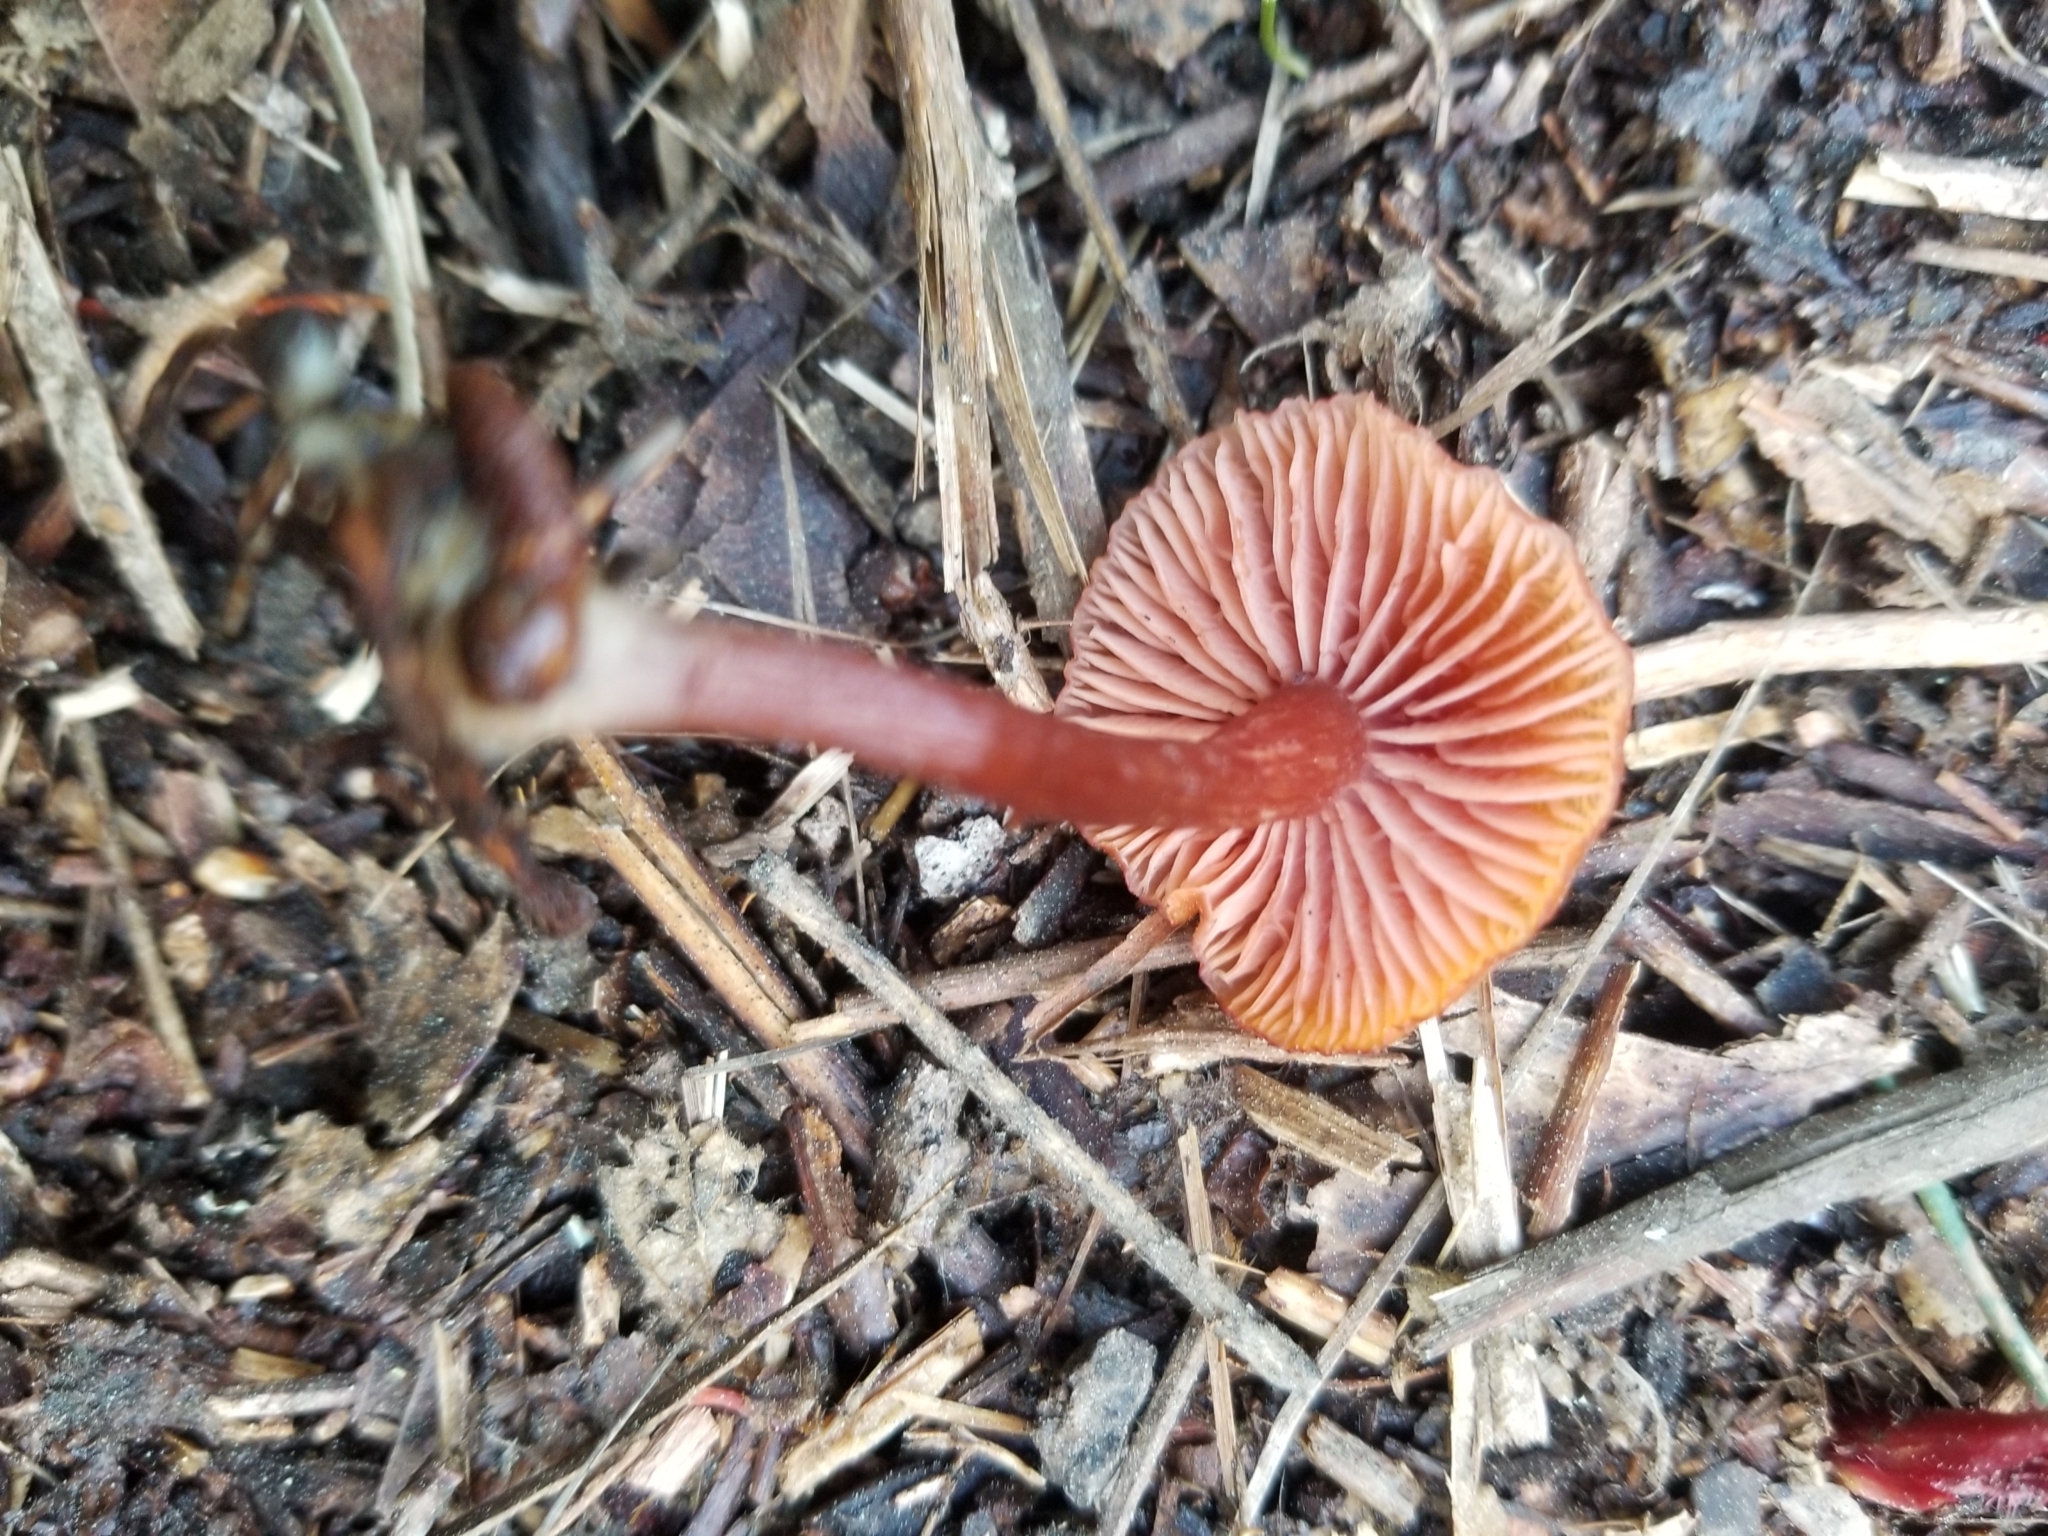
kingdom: Fungi
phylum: Basidiomycota
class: Agaricomycetes
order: Agaricales
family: Hydnangiaceae
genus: Laccaria
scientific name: Laccaria laccata
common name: Deceiver
